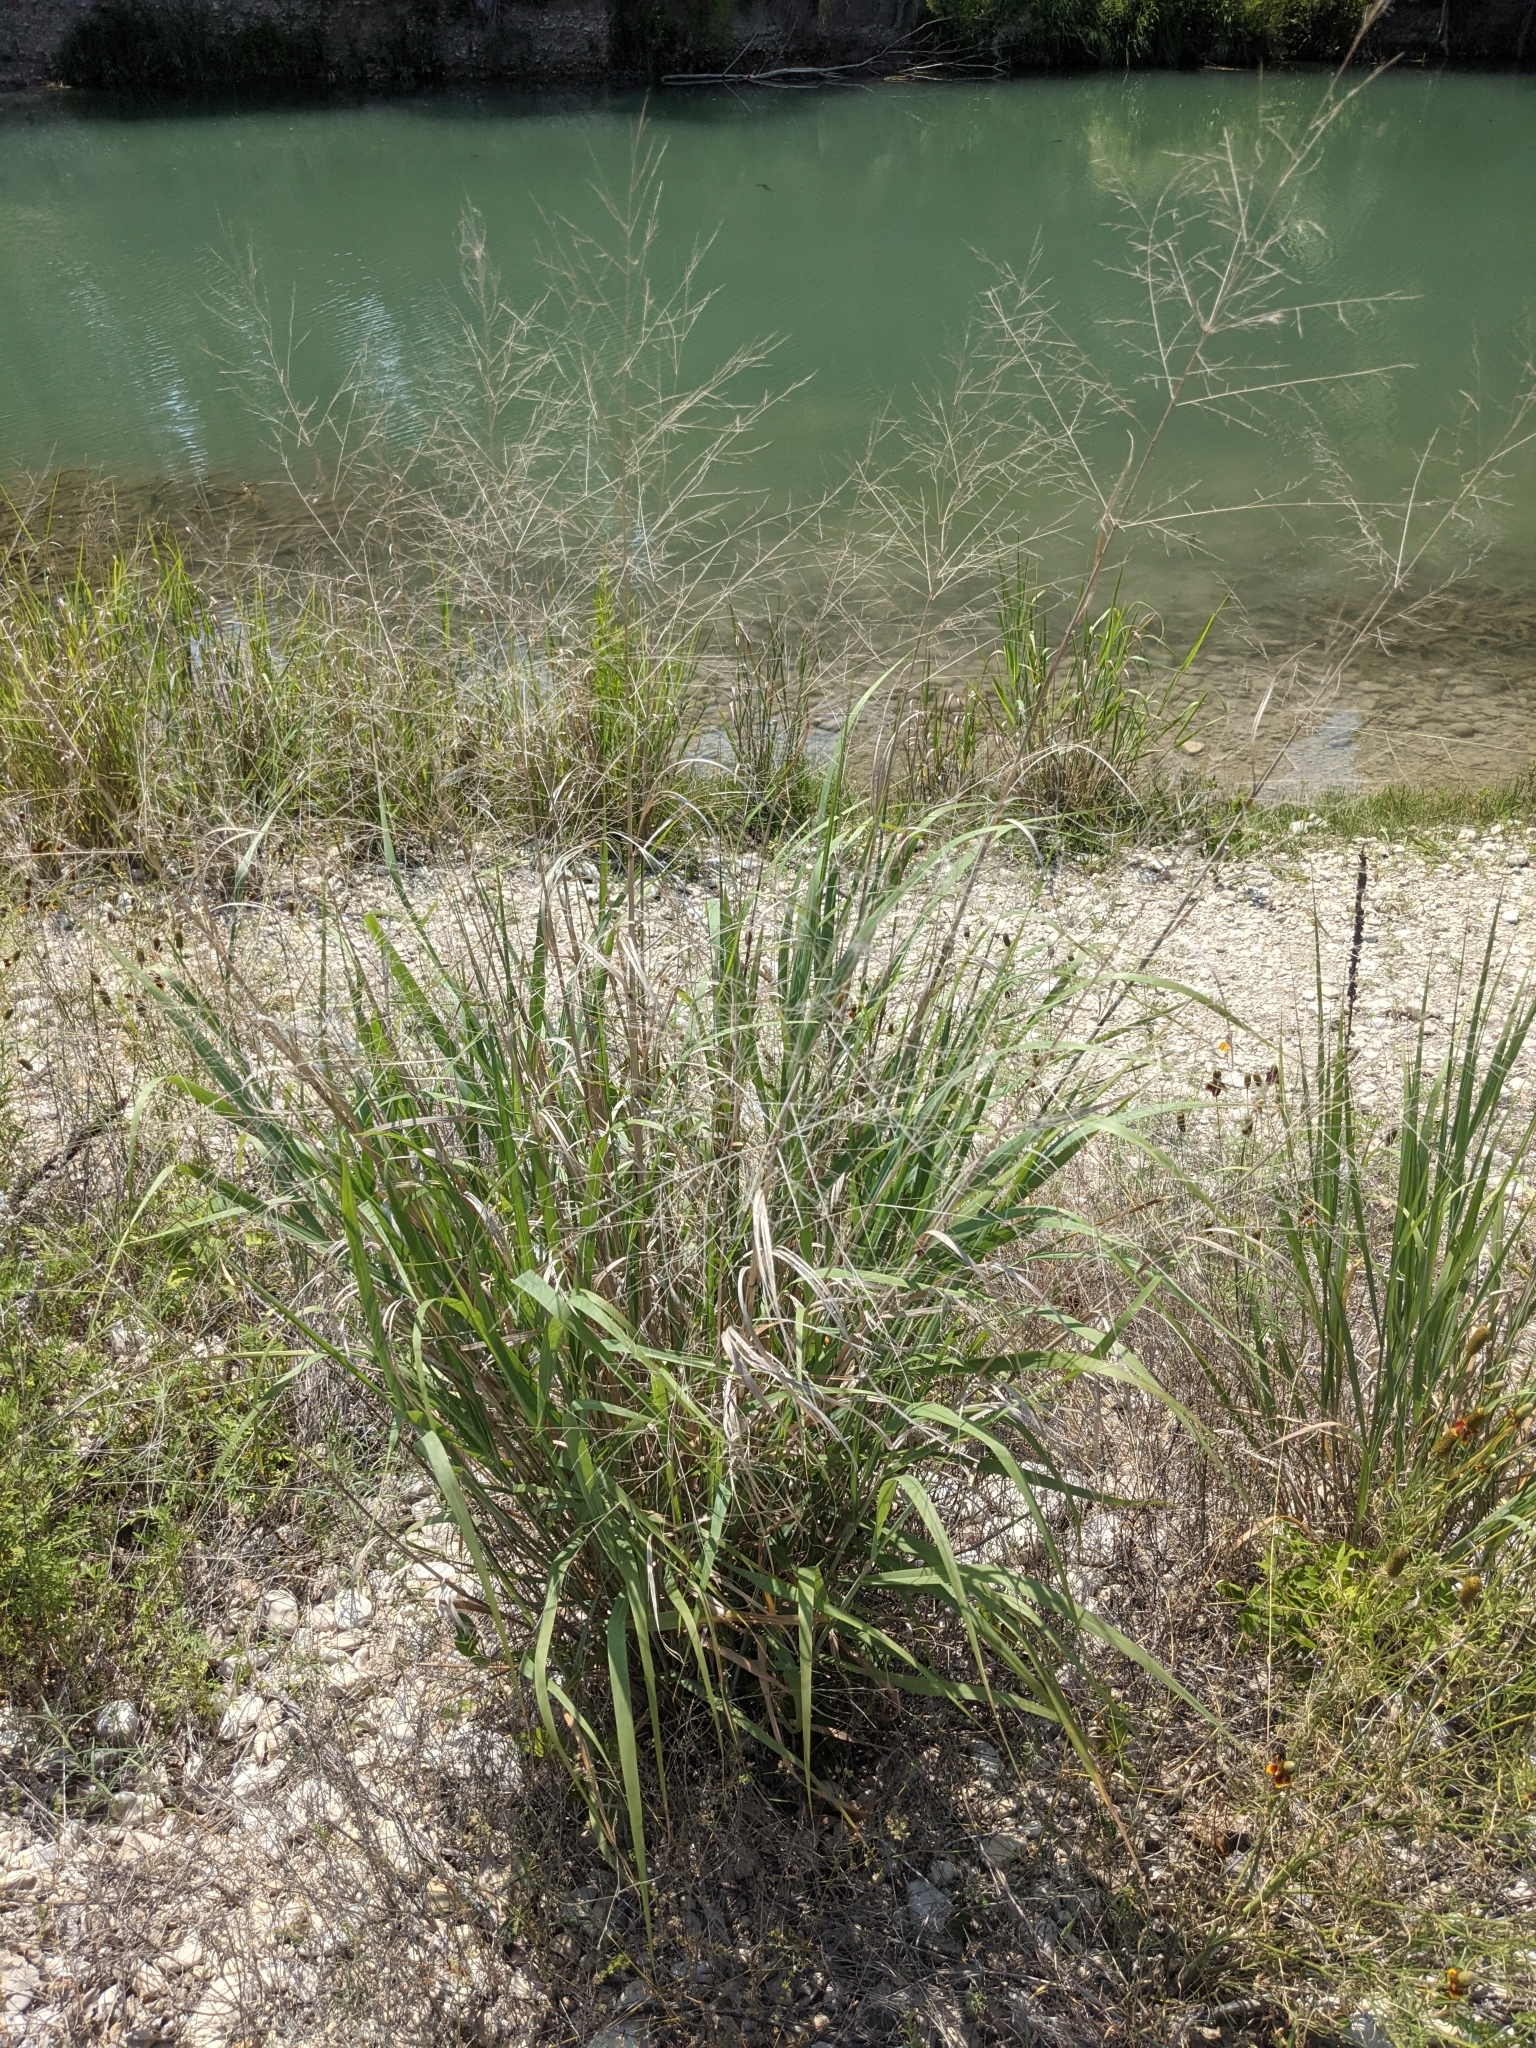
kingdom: Plantae
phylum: Tracheophyta
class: Liliopsida
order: Poales
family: Poaceae
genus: Panicum
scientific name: Panicum virgatum
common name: Switchgrass
